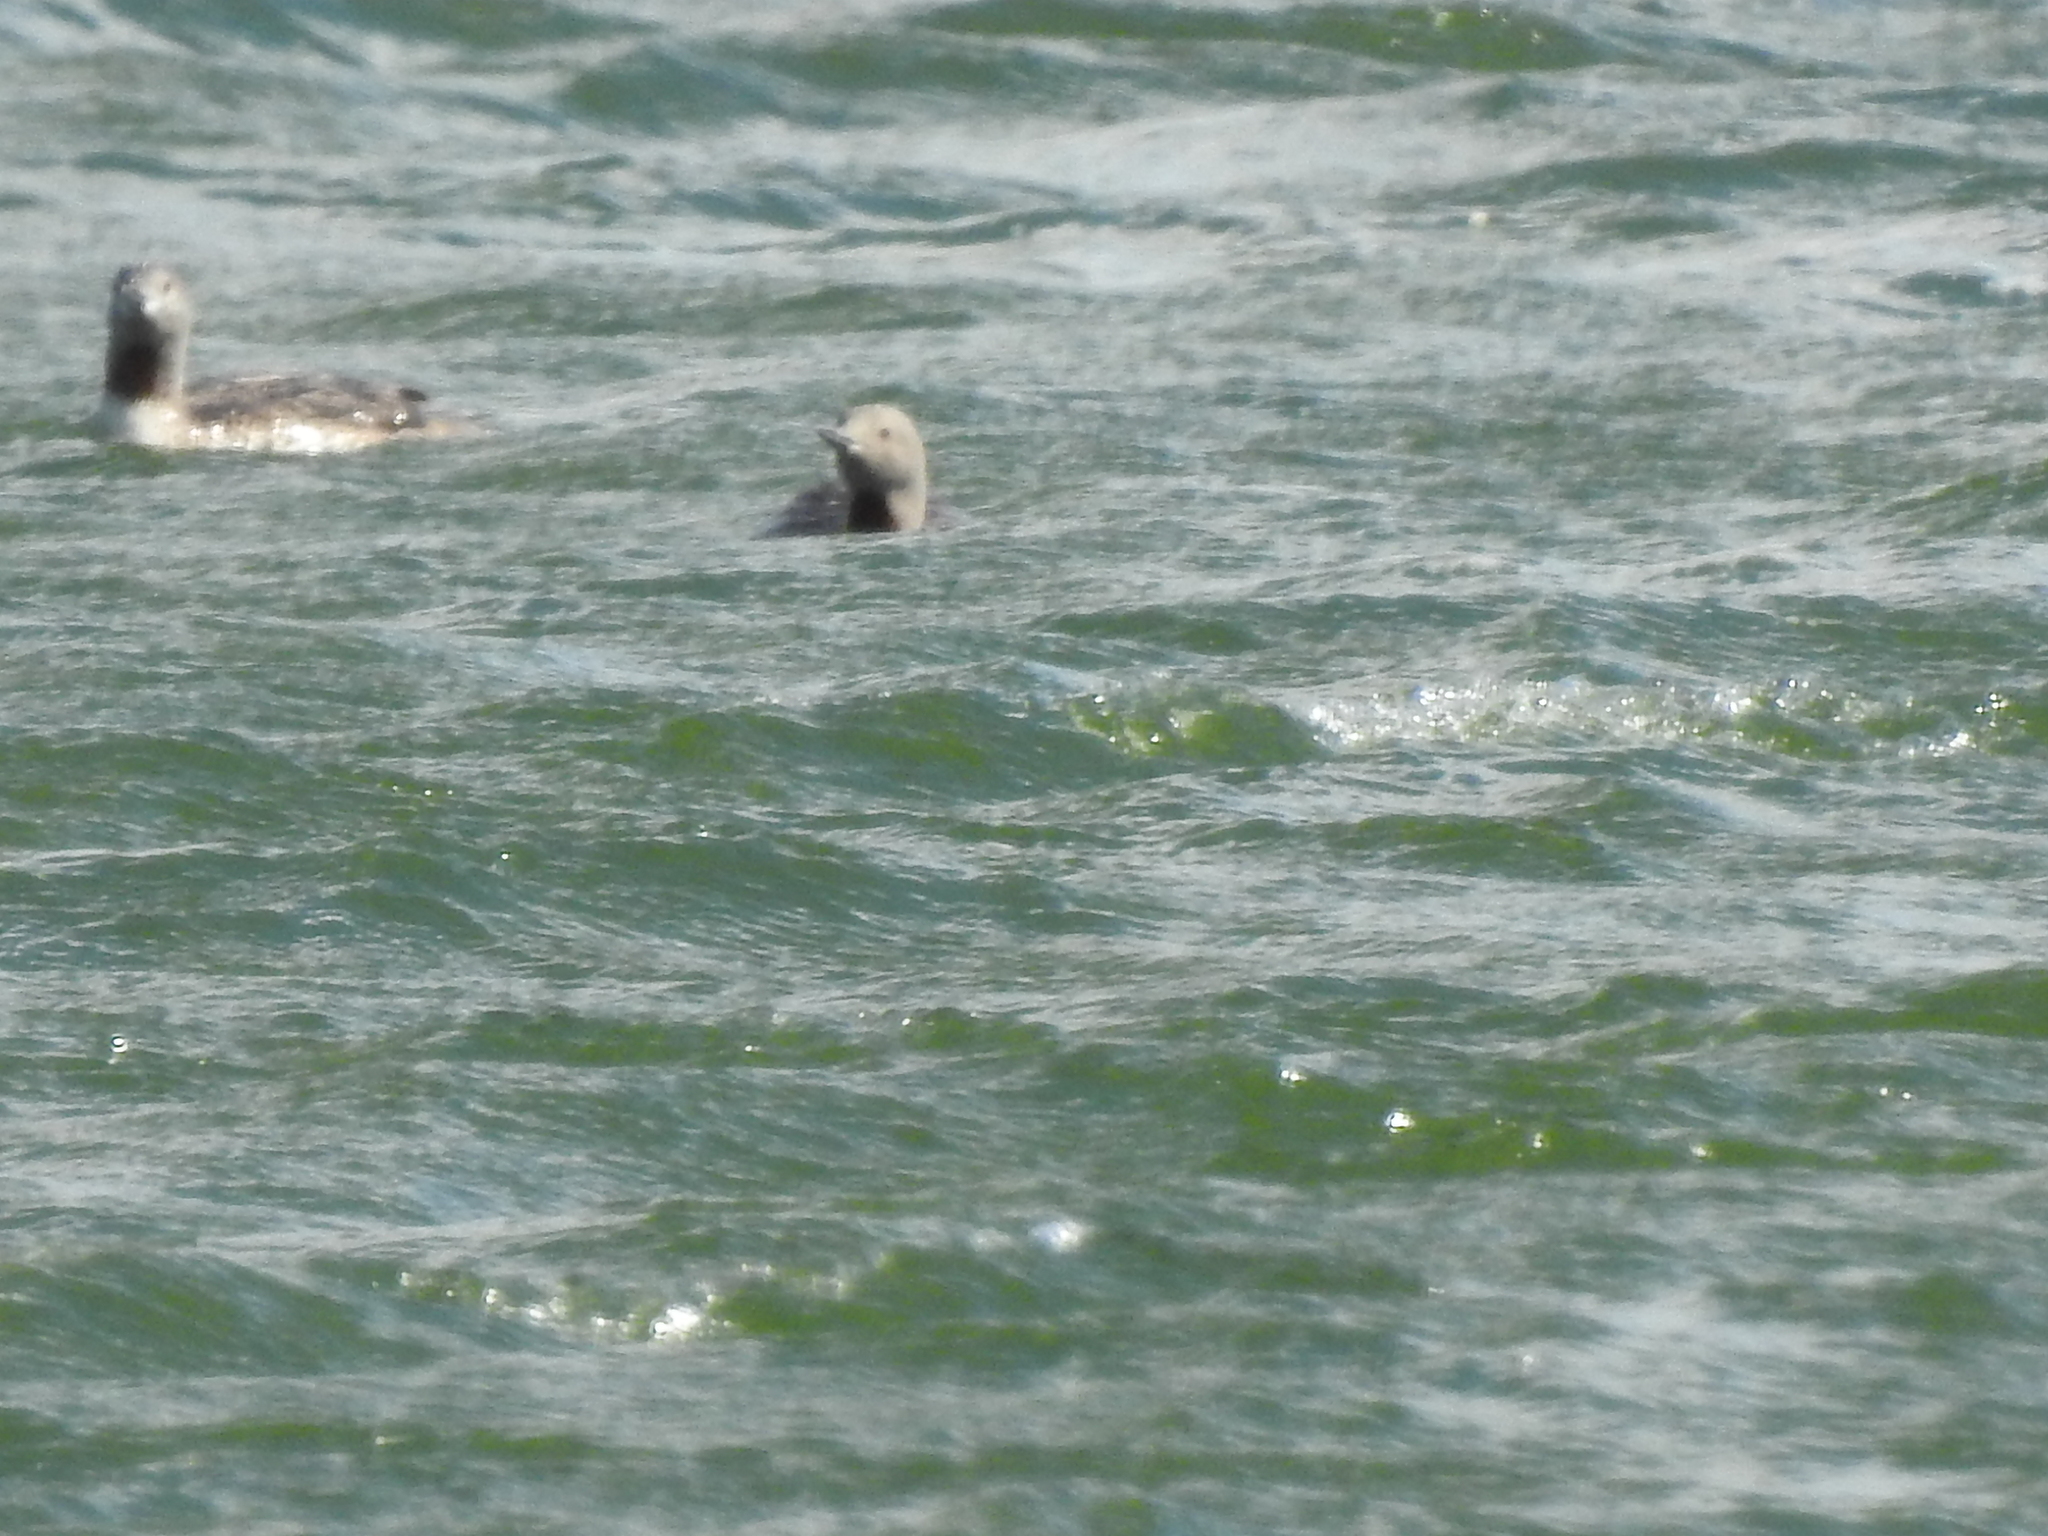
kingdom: Animalia
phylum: Chordata
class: Aves
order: Gaviiformes
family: Gaviidae
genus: Gavia
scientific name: Gavia arctica
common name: Black-throated loon
